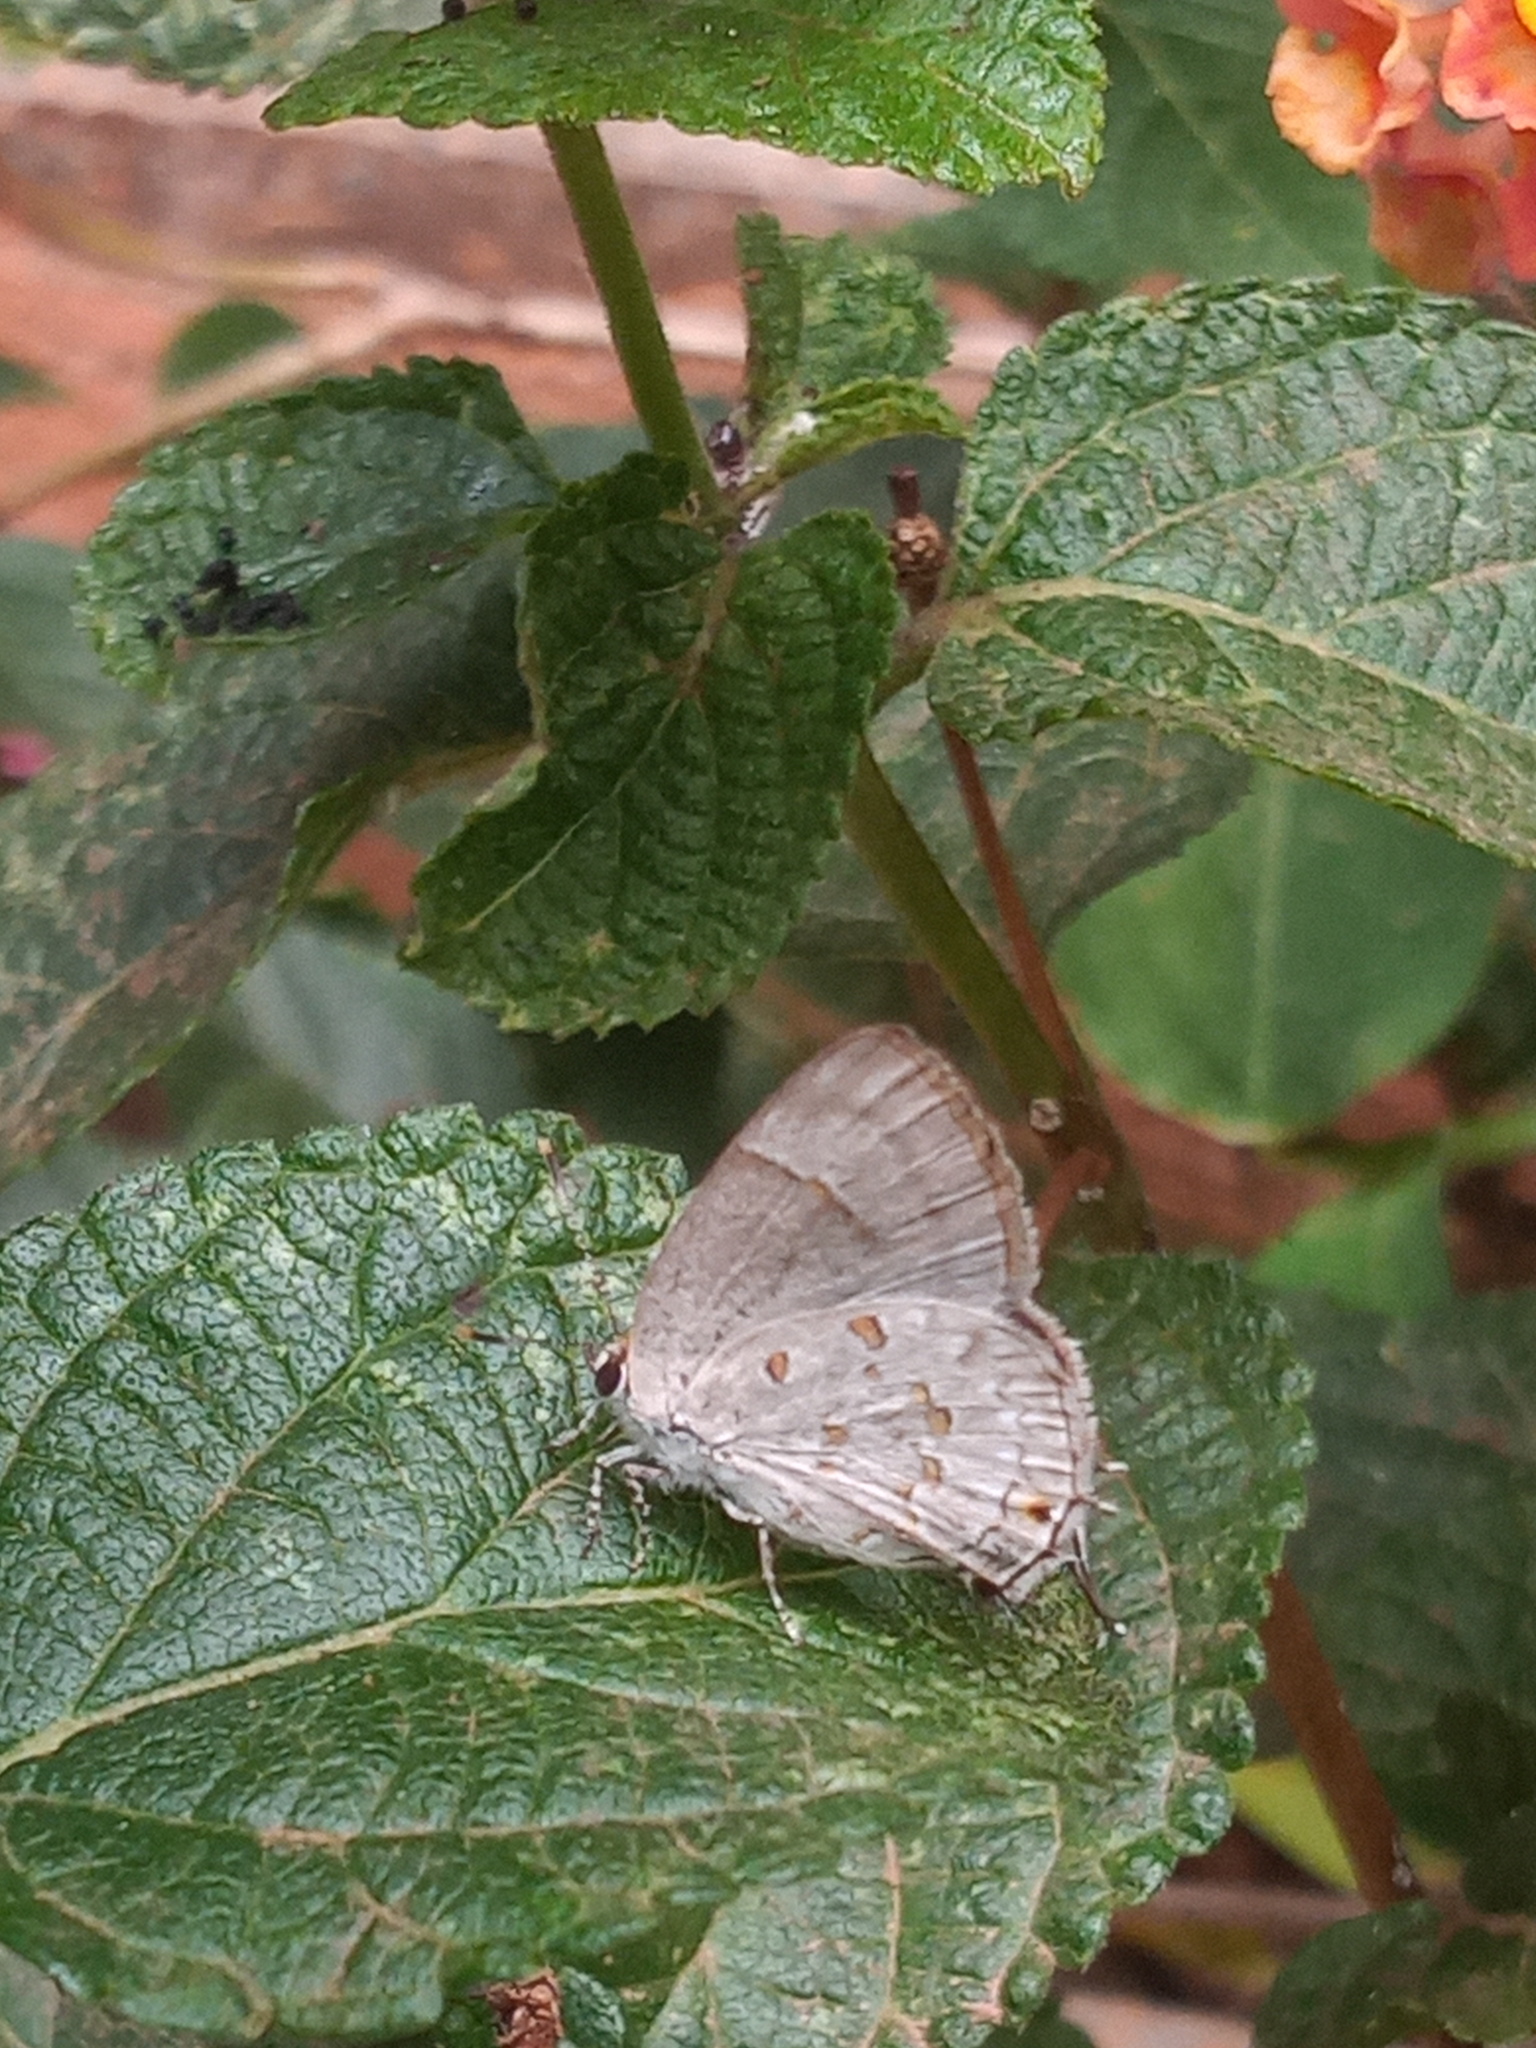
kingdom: Animalia
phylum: Arthropoda
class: Insecta
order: Lepidoptera
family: Lycaenidae
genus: Tmolus
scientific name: Tmolus echion
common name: Red-spotted hairstreak
